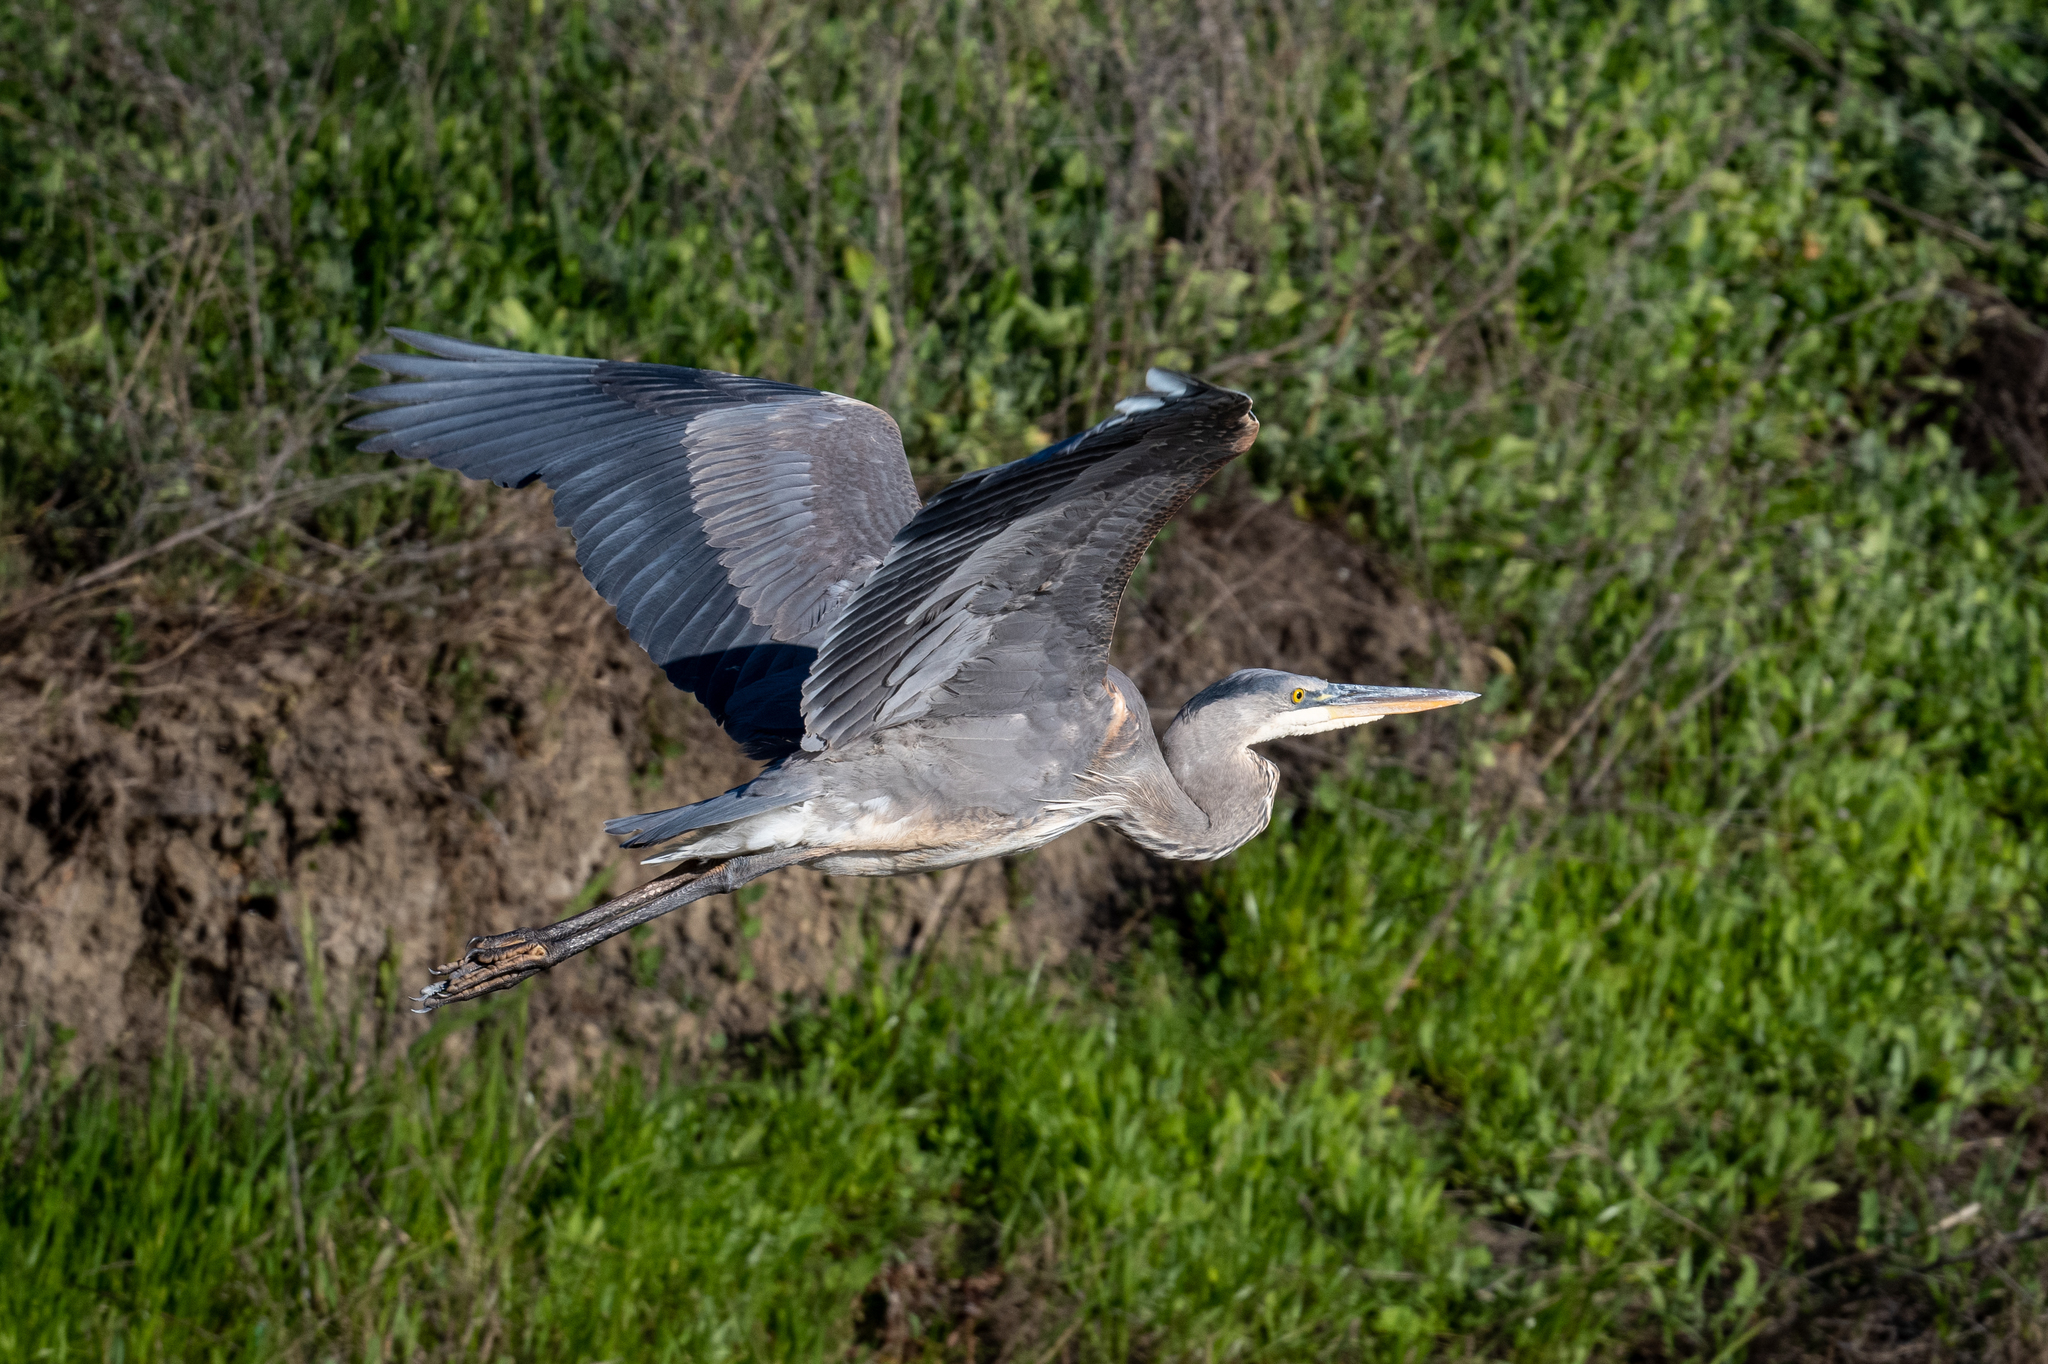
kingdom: Animalia
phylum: Chordata
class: Aves
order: Pelecaniformes
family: Ardeidae
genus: Ardea
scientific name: Ardea herodias
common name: Great blue heron
